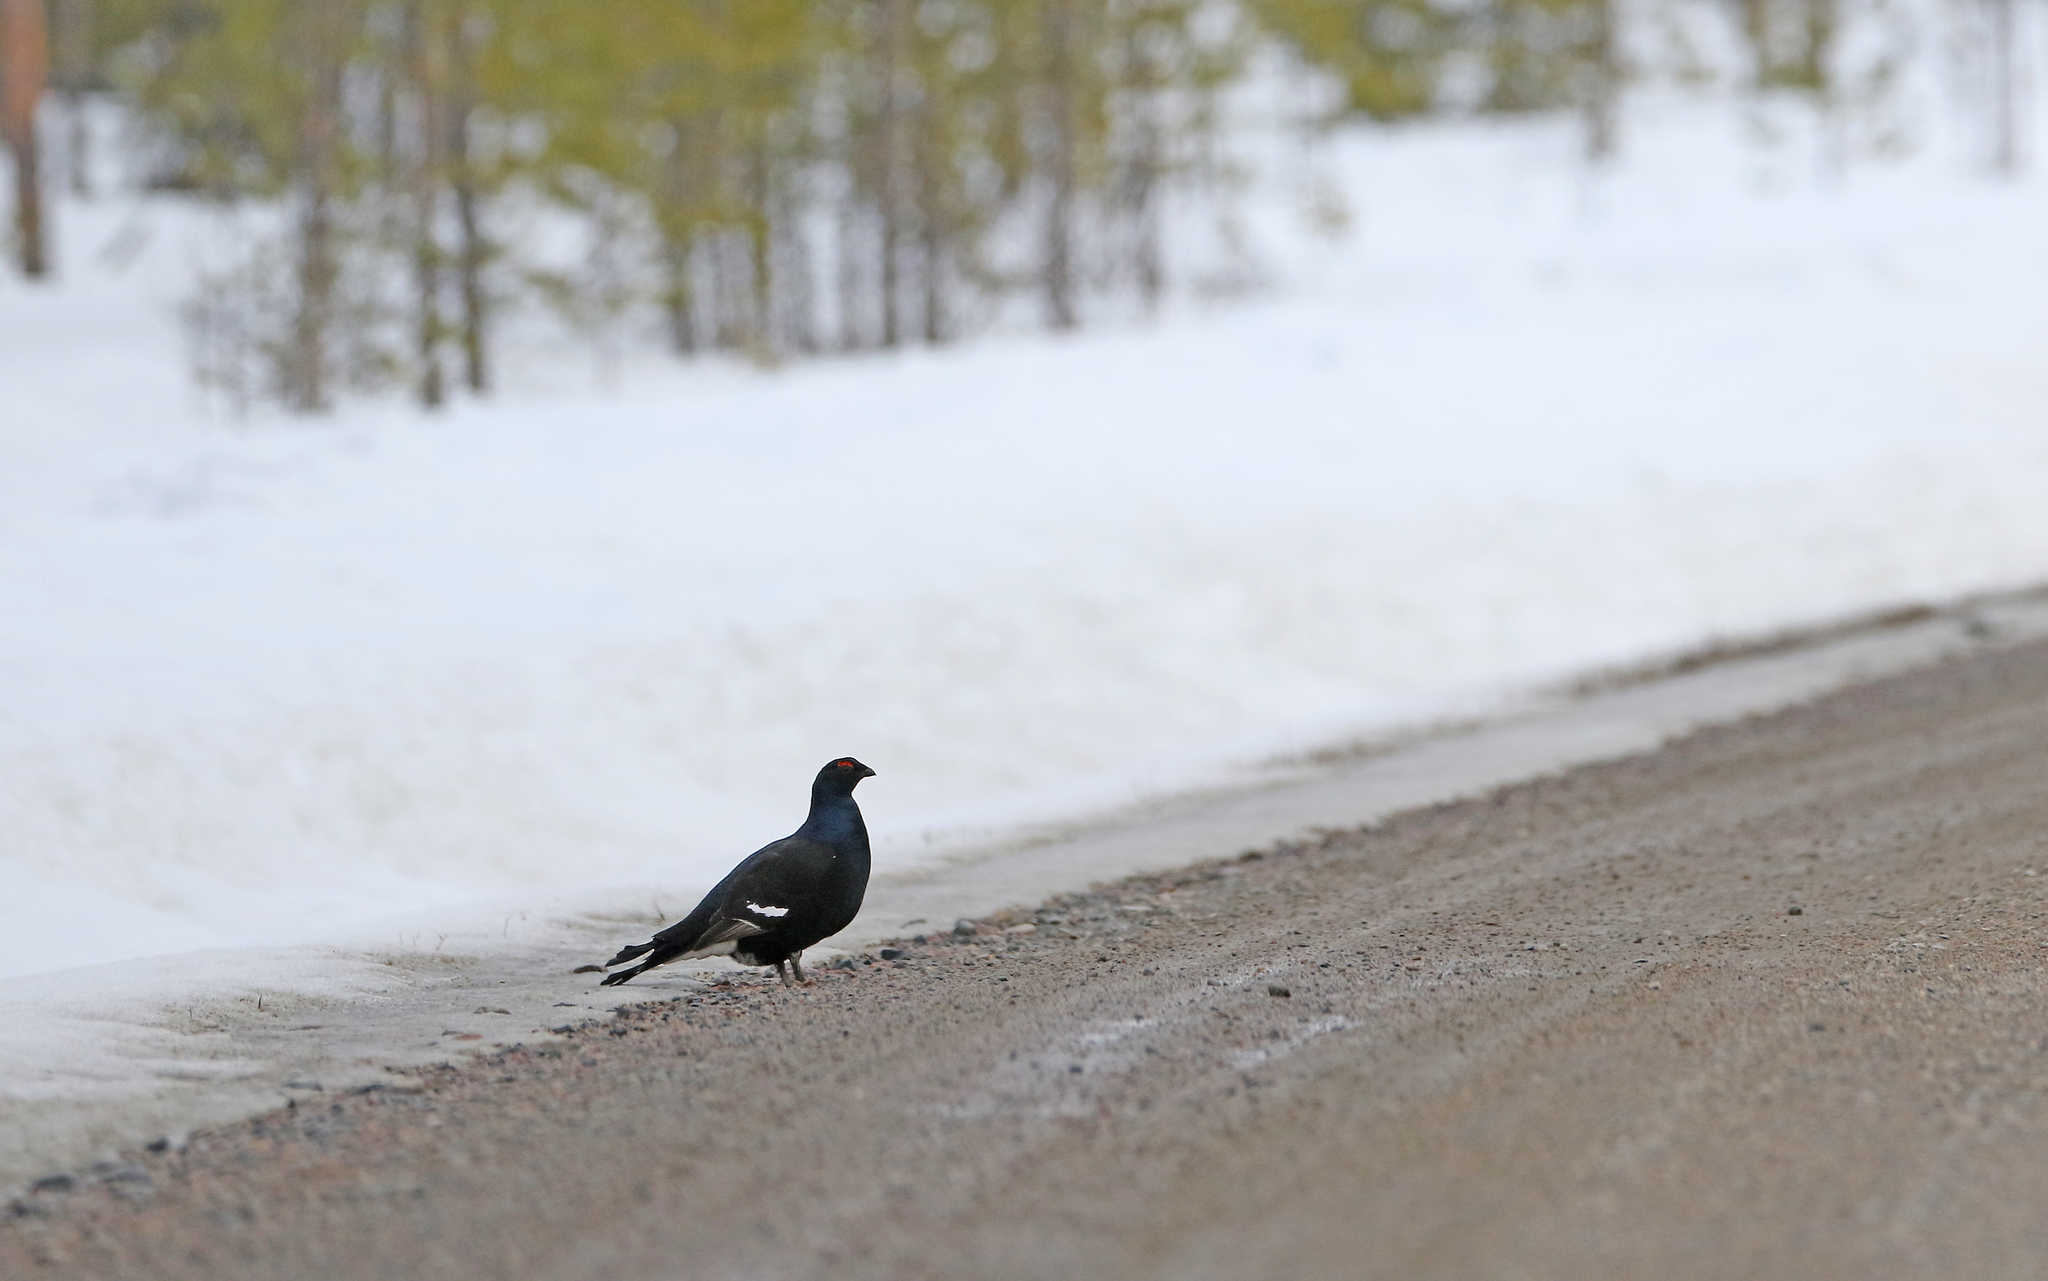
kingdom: Animalia
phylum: Chordata
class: Aves
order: Galliformes
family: Phasianidae
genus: Lyrurus
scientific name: Lyrurus tetrix
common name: Black grouse
